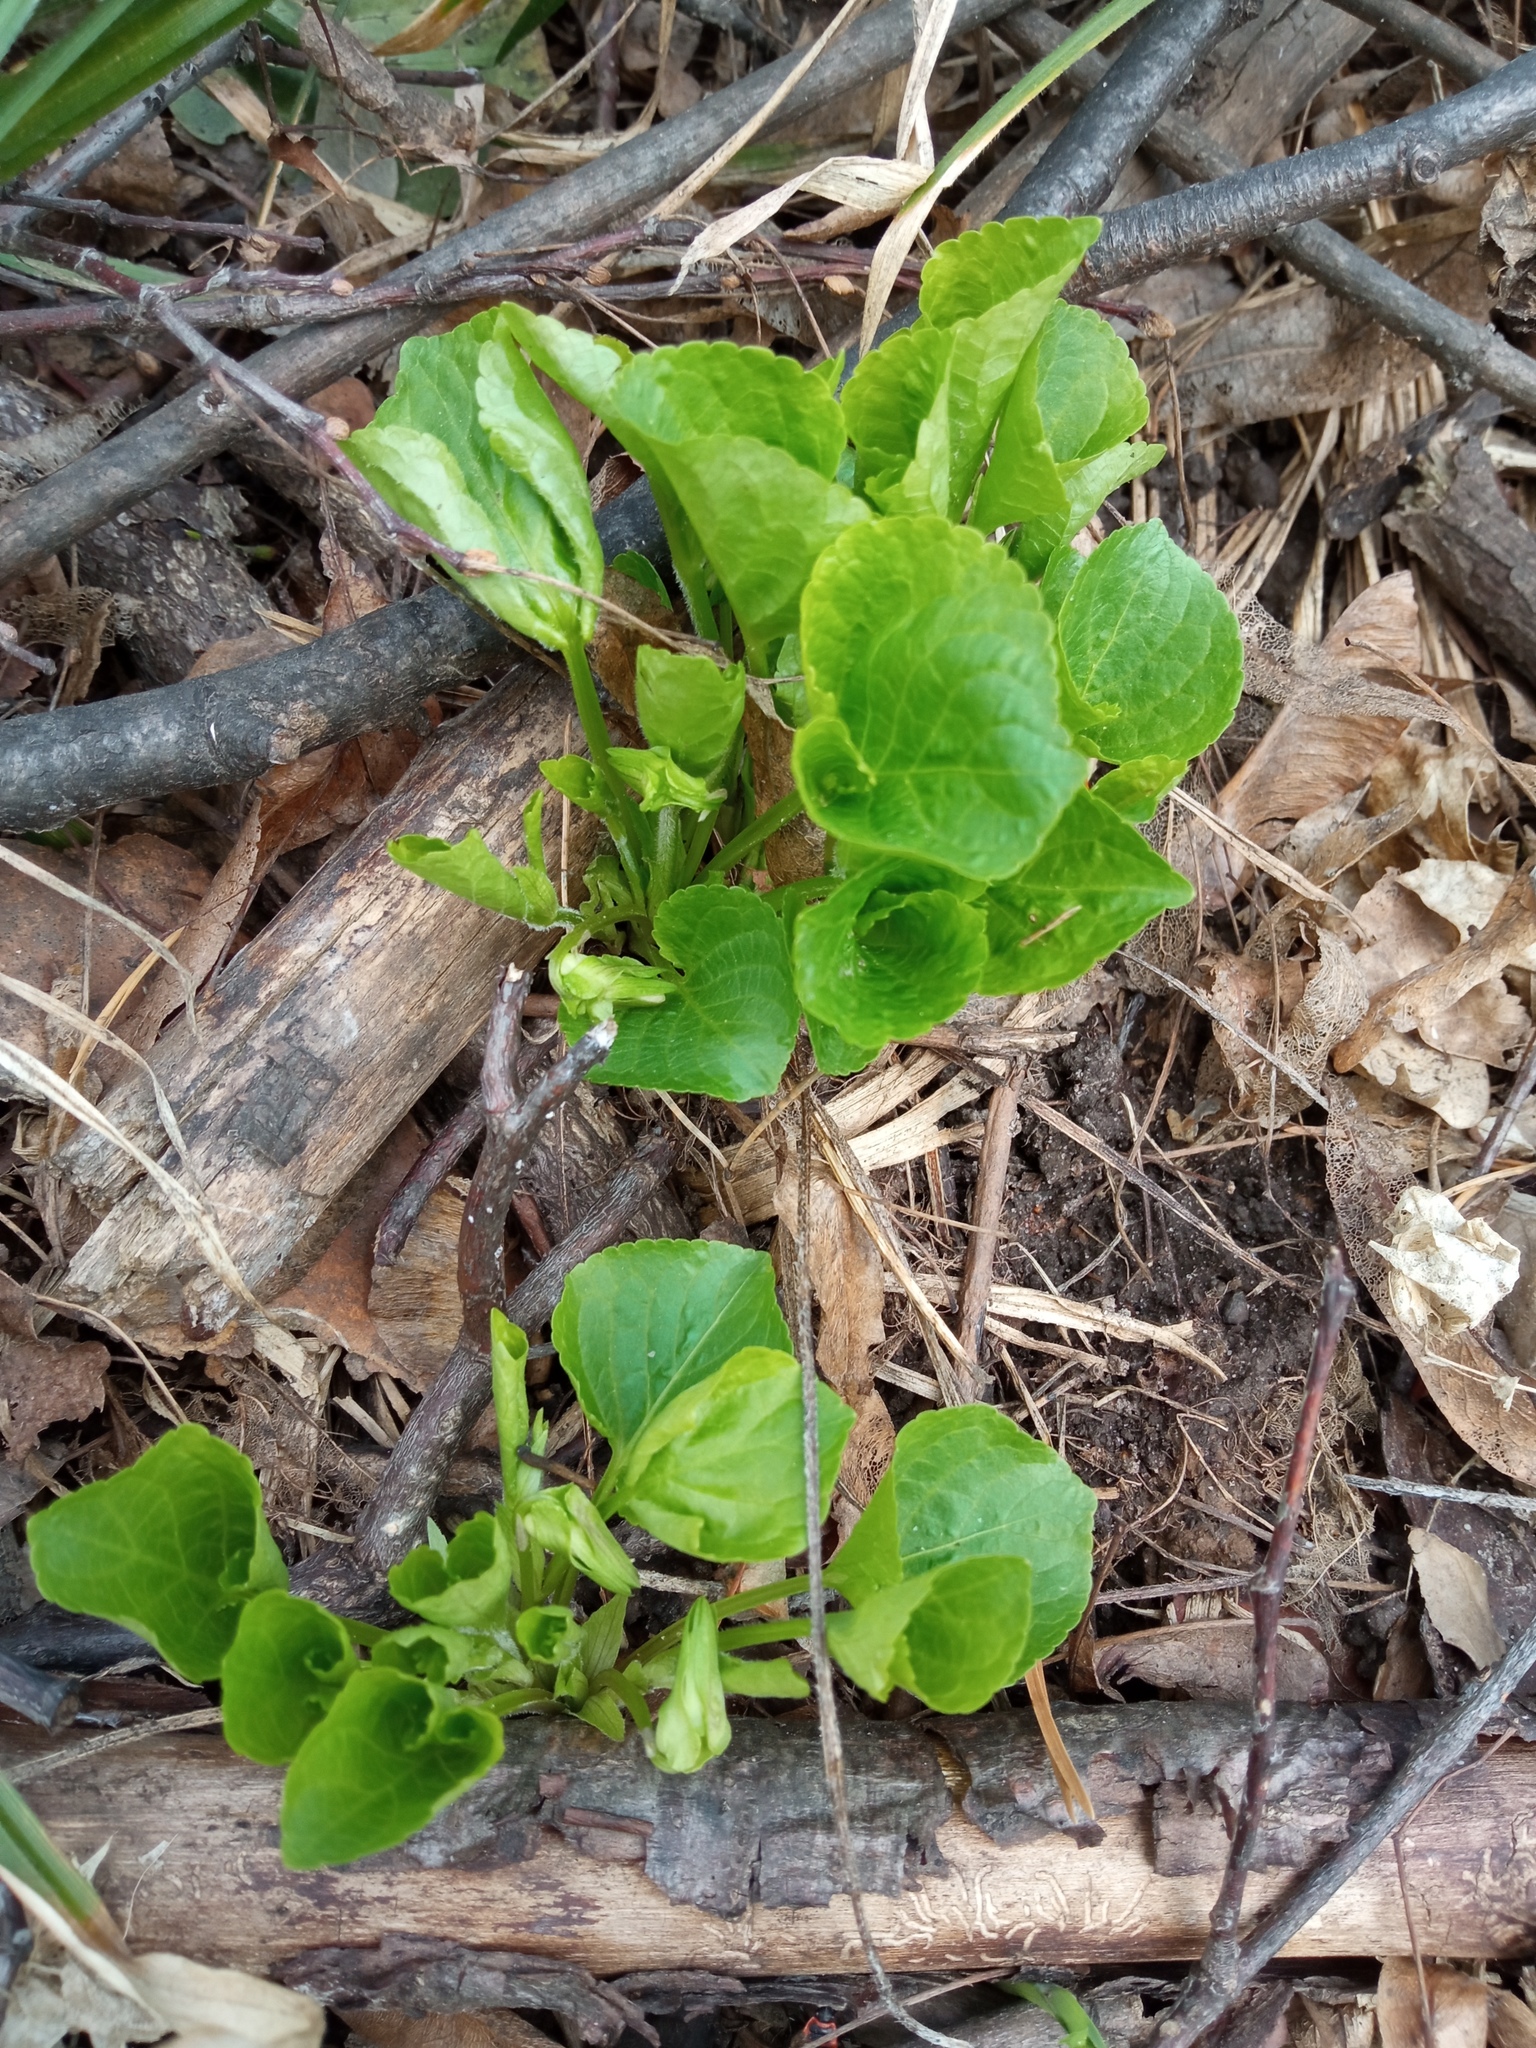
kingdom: Plantae
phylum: Tracheophyta
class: Magnoliopsida
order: Malpighiales
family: Violaceae
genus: Viola
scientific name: Viola mirabilis
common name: Wonder violet
